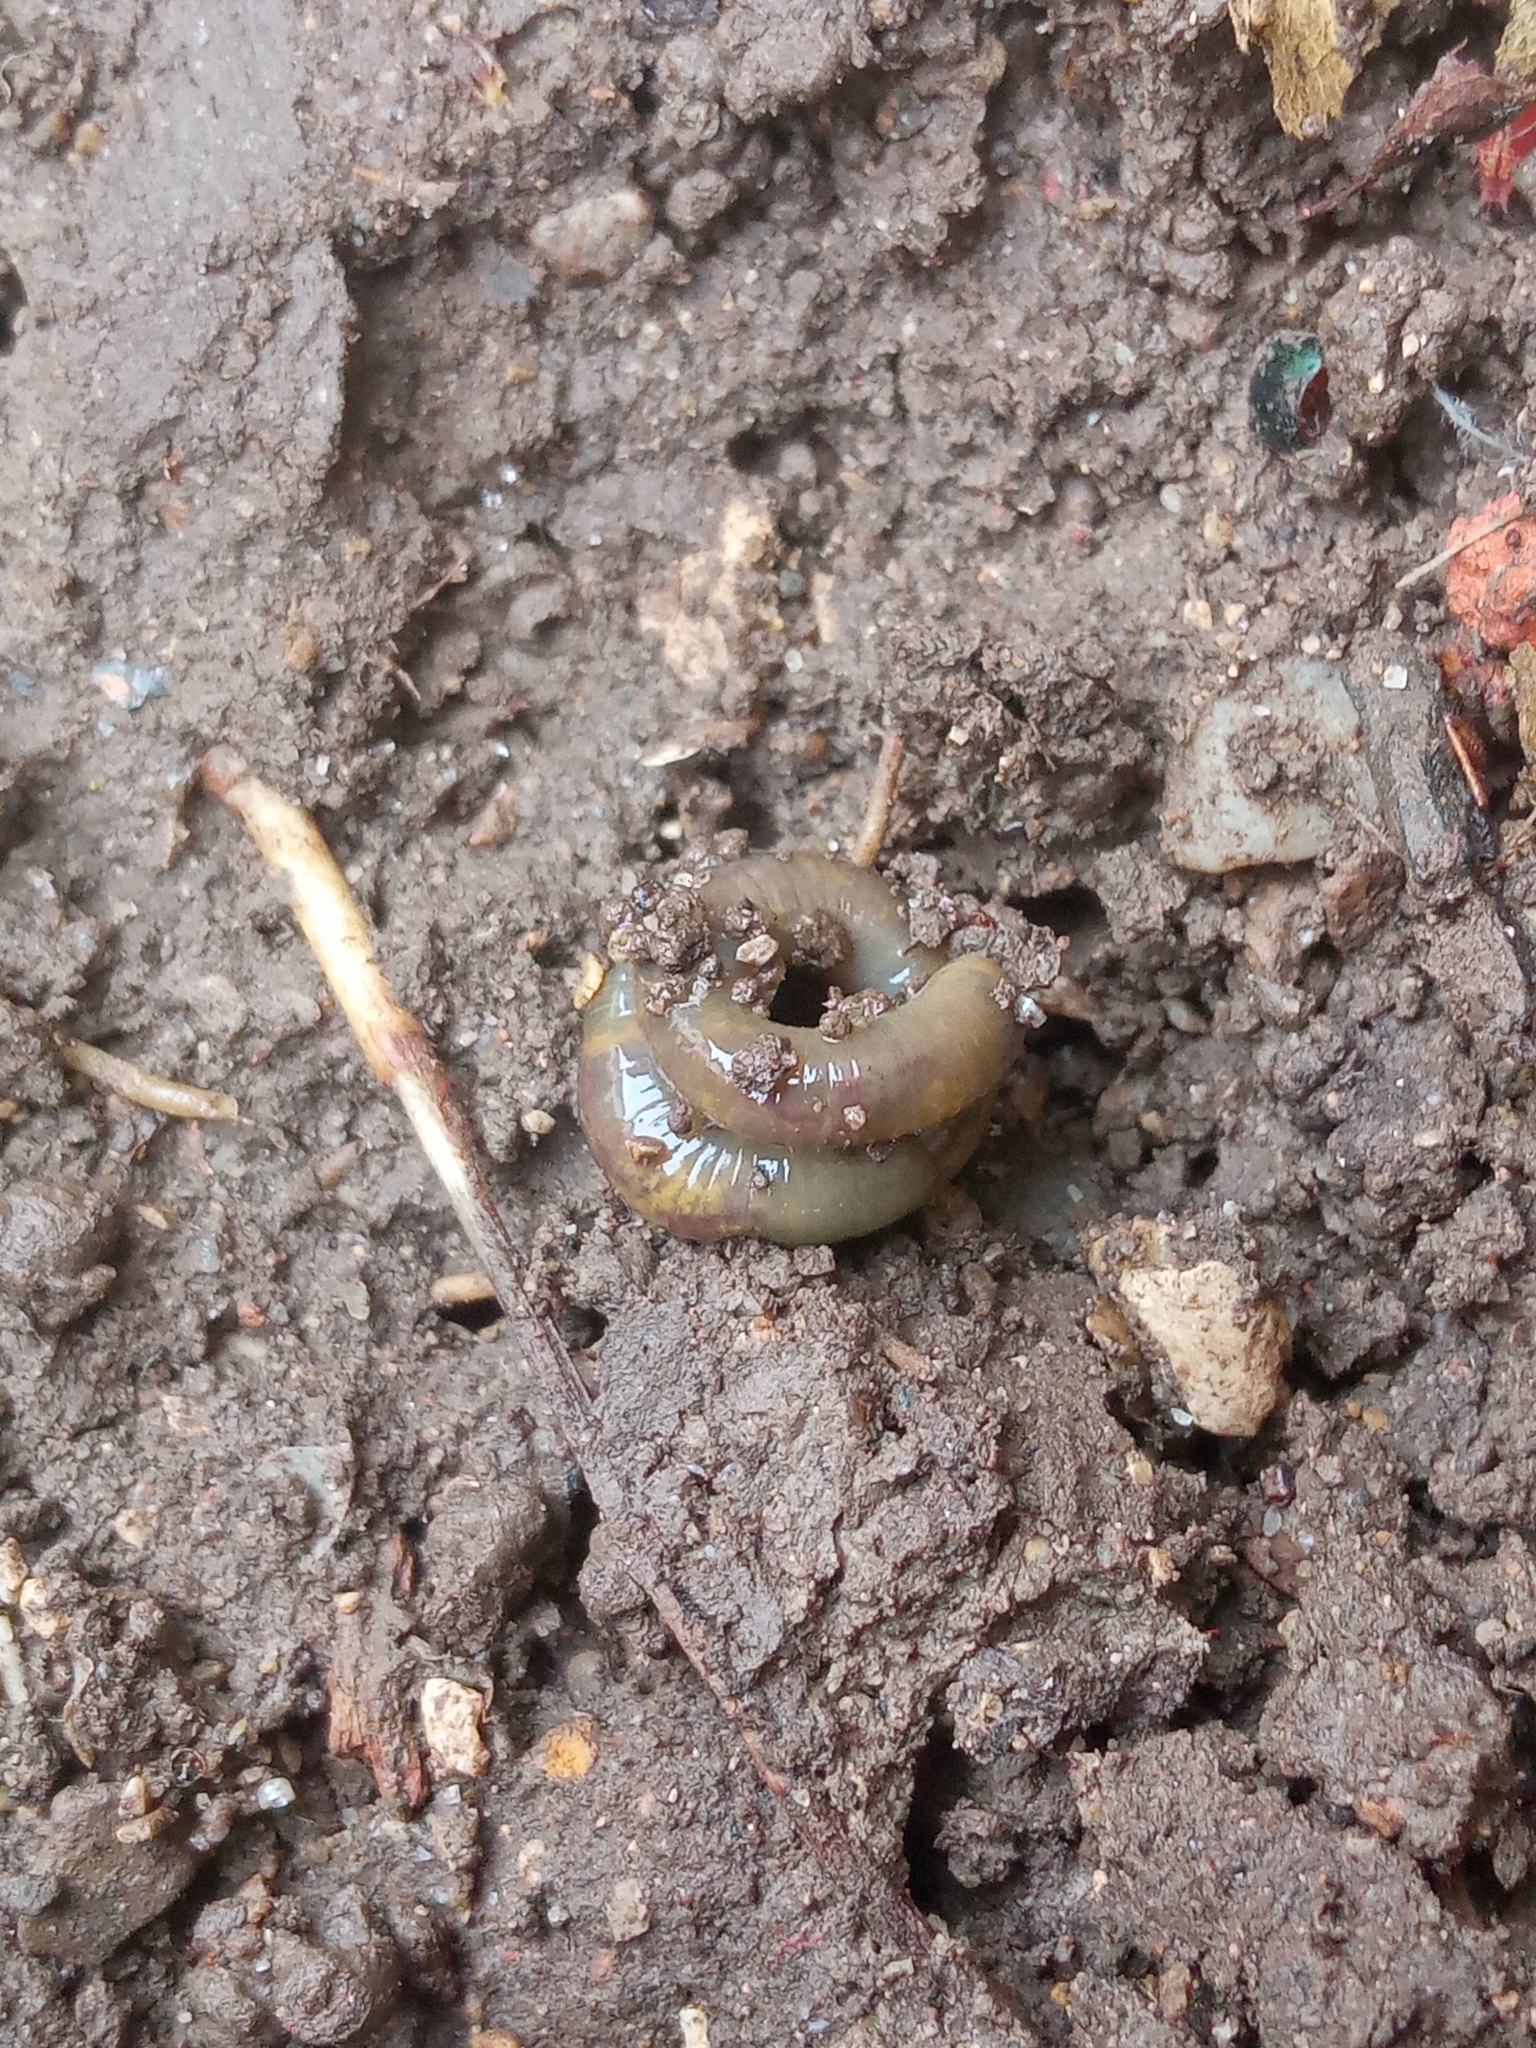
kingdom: Animalia
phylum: Annelida
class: Clitellata
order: Crassiclitellata
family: Lumbricidae
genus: Allolobophora
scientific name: Allolobophora chlorotica
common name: Green worm
